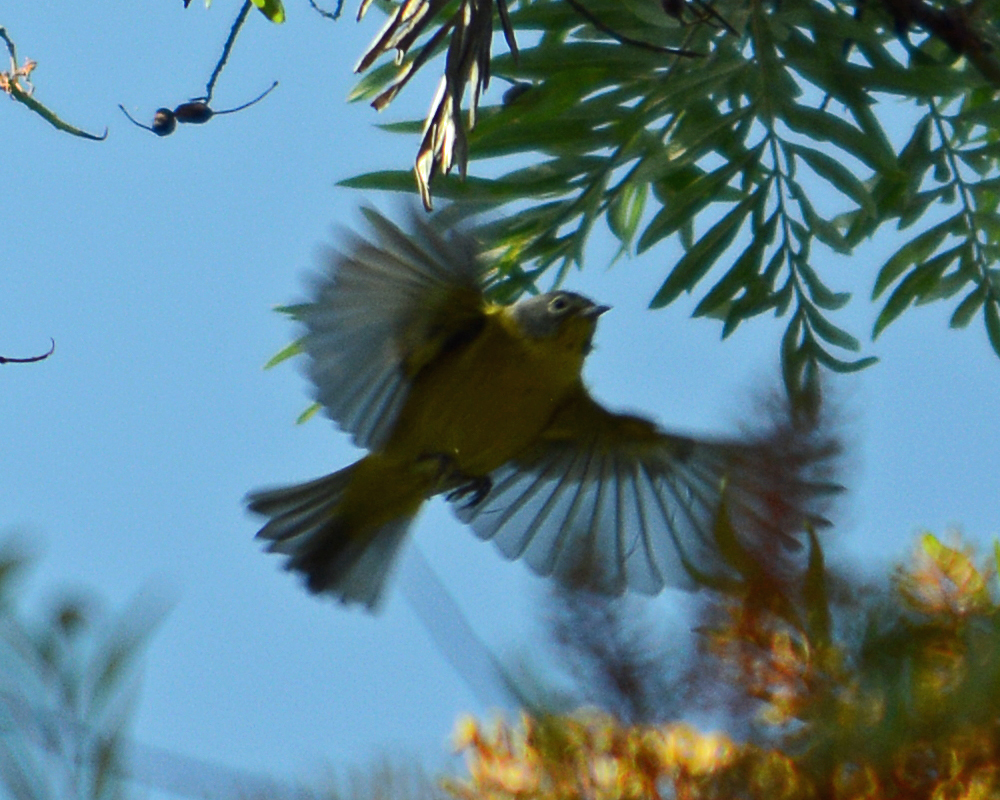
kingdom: Animalia
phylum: Chordata
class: Aves
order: Passeriformes
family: Parulidae
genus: Leiothlypis
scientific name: Leiothlypis ruficapilla
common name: Nashville warbler
